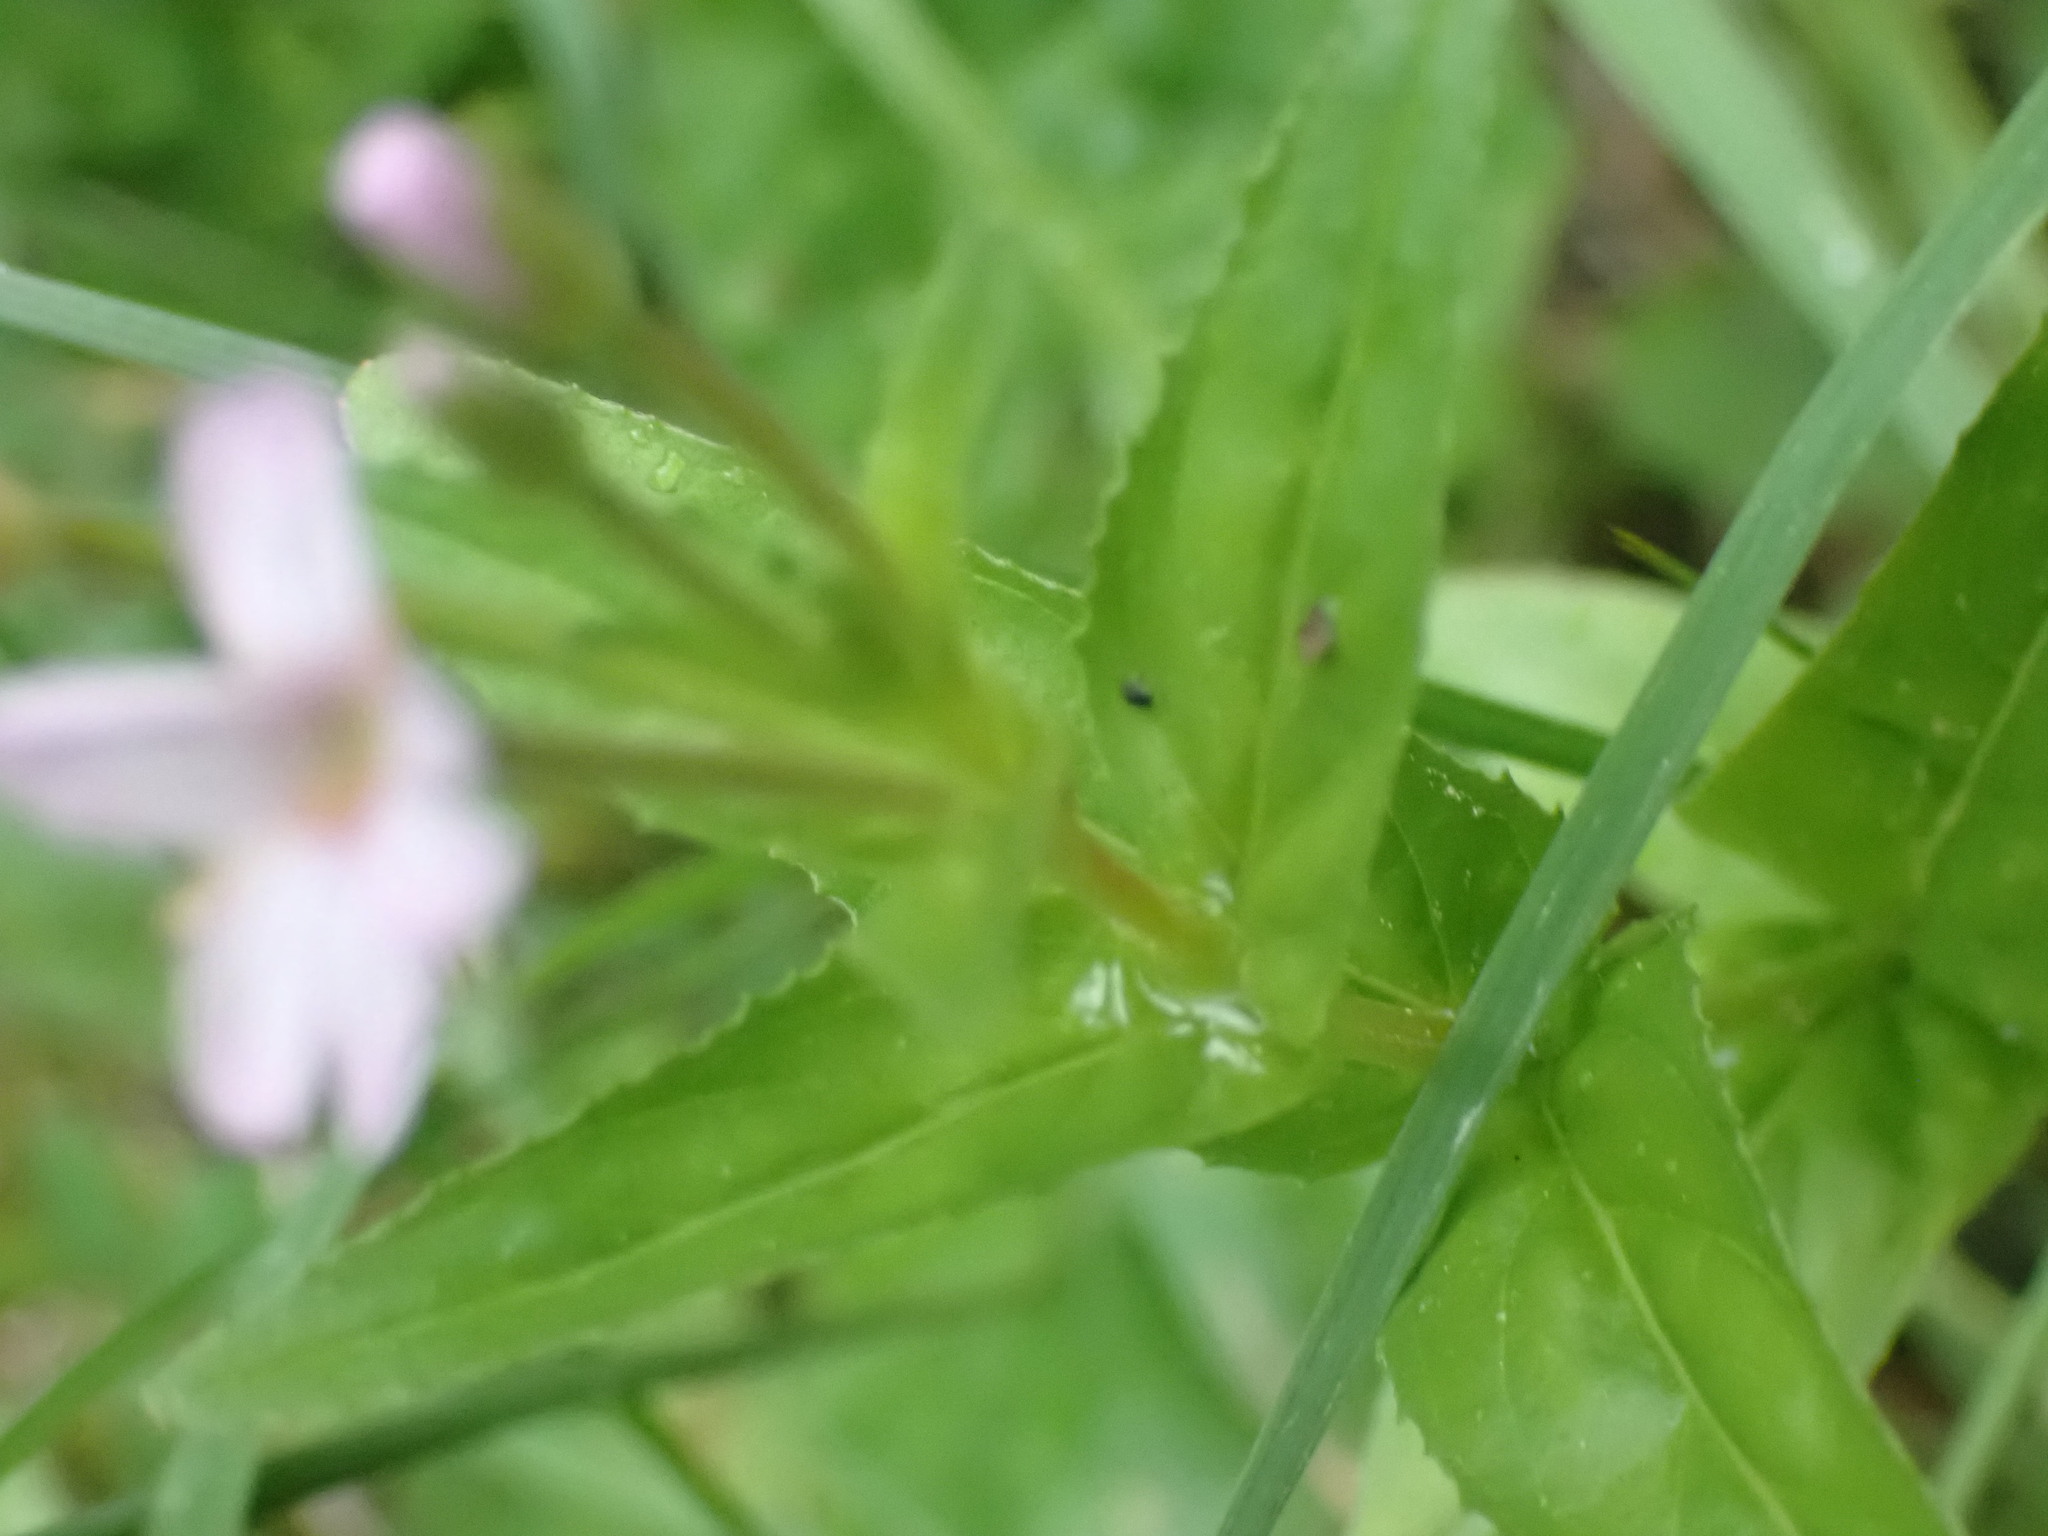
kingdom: Plantae
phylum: Tracheophyta
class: Magnoliopsida
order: Myrtales
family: Onagraceae
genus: Epilobium
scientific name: Epilobium ciliatum
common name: American willowherb
